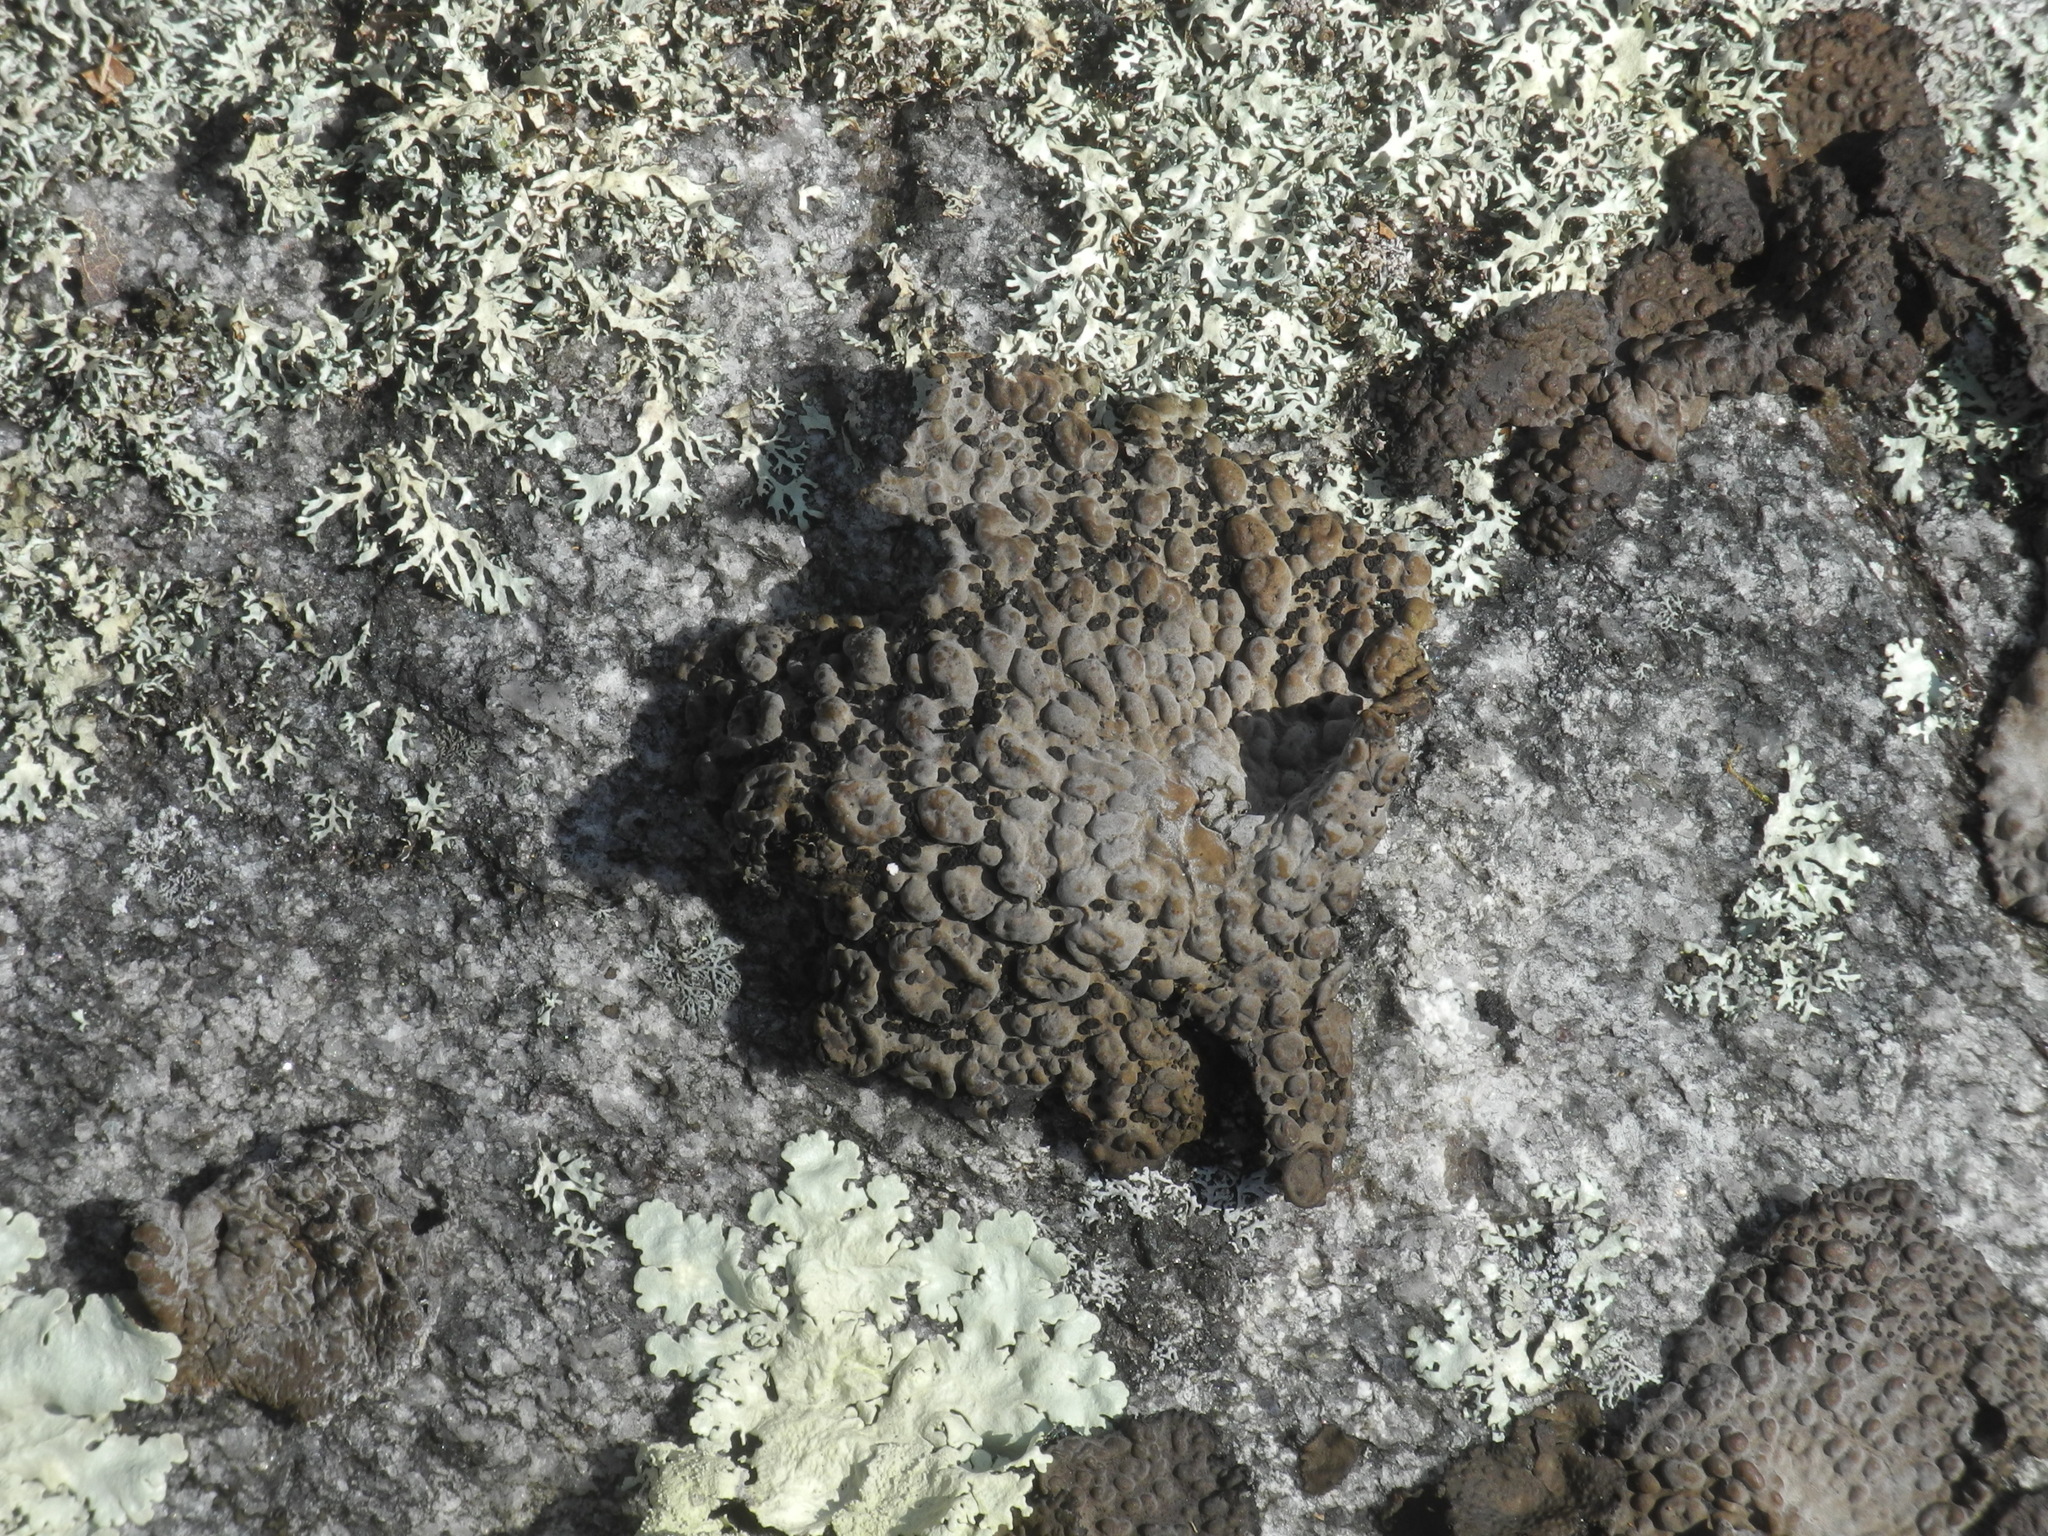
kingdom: Fungi
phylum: Ascomycota
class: Lecanoromycetes
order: Umbilicariales
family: Umbilicariaceae
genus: Lasallia
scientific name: Lasallia papulosa
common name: Common toadskin lichen
